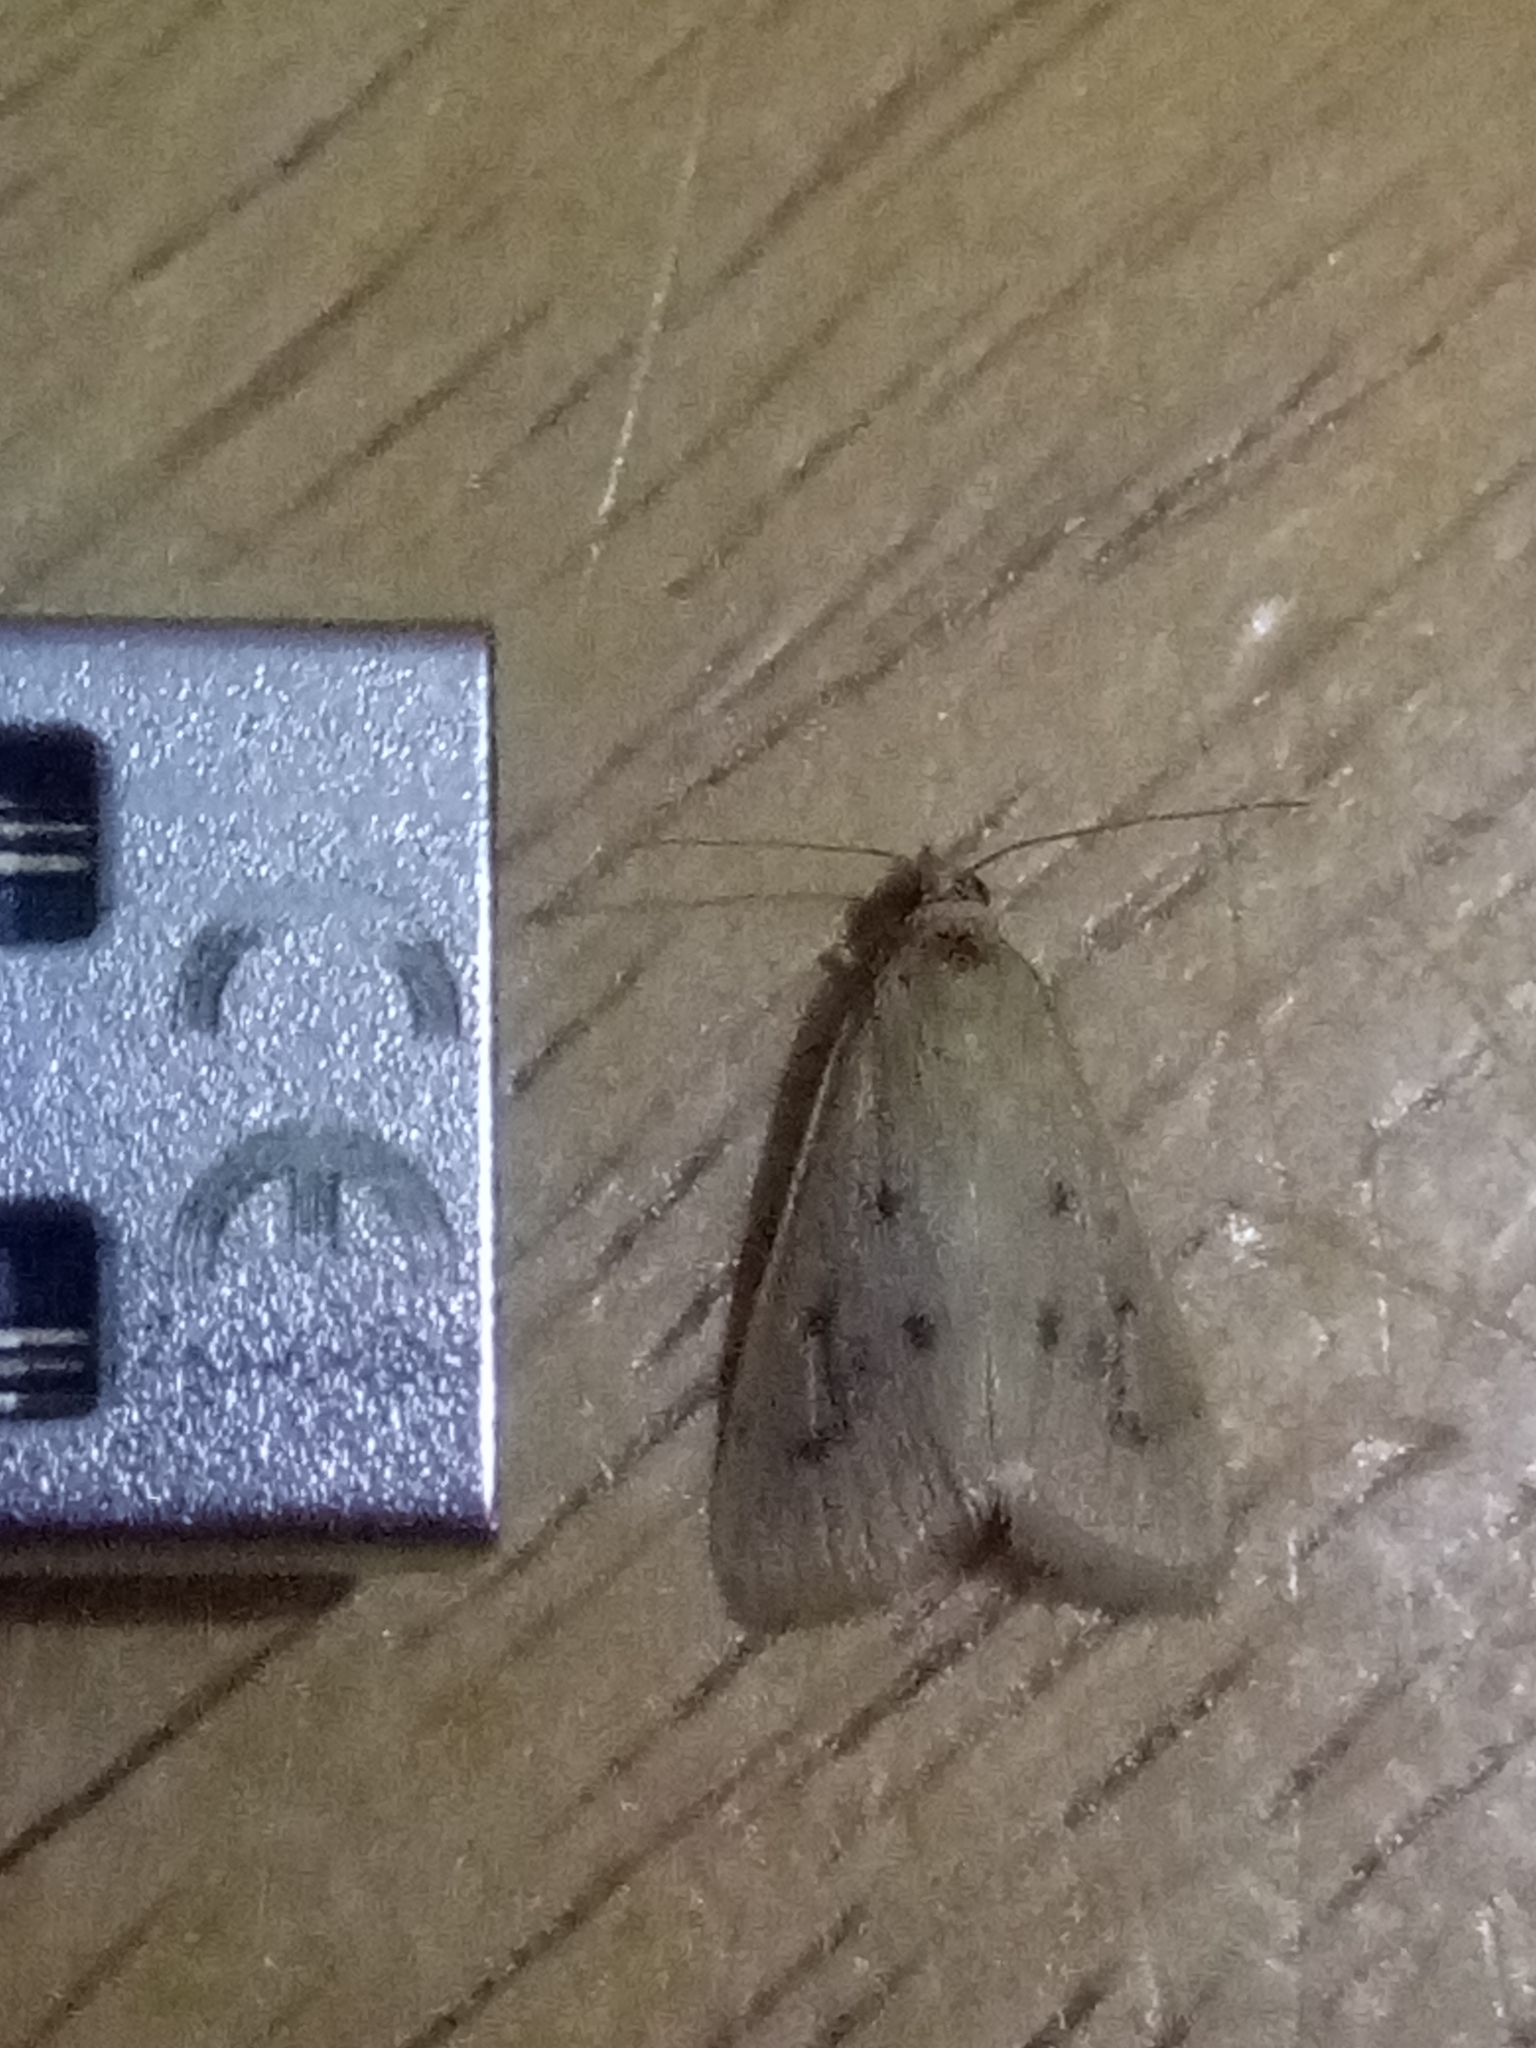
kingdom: Animalia
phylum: Arthropoda
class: Insecta
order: Lepidoptera
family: Crambidae
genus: Achyra
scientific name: Achyra nudalis
